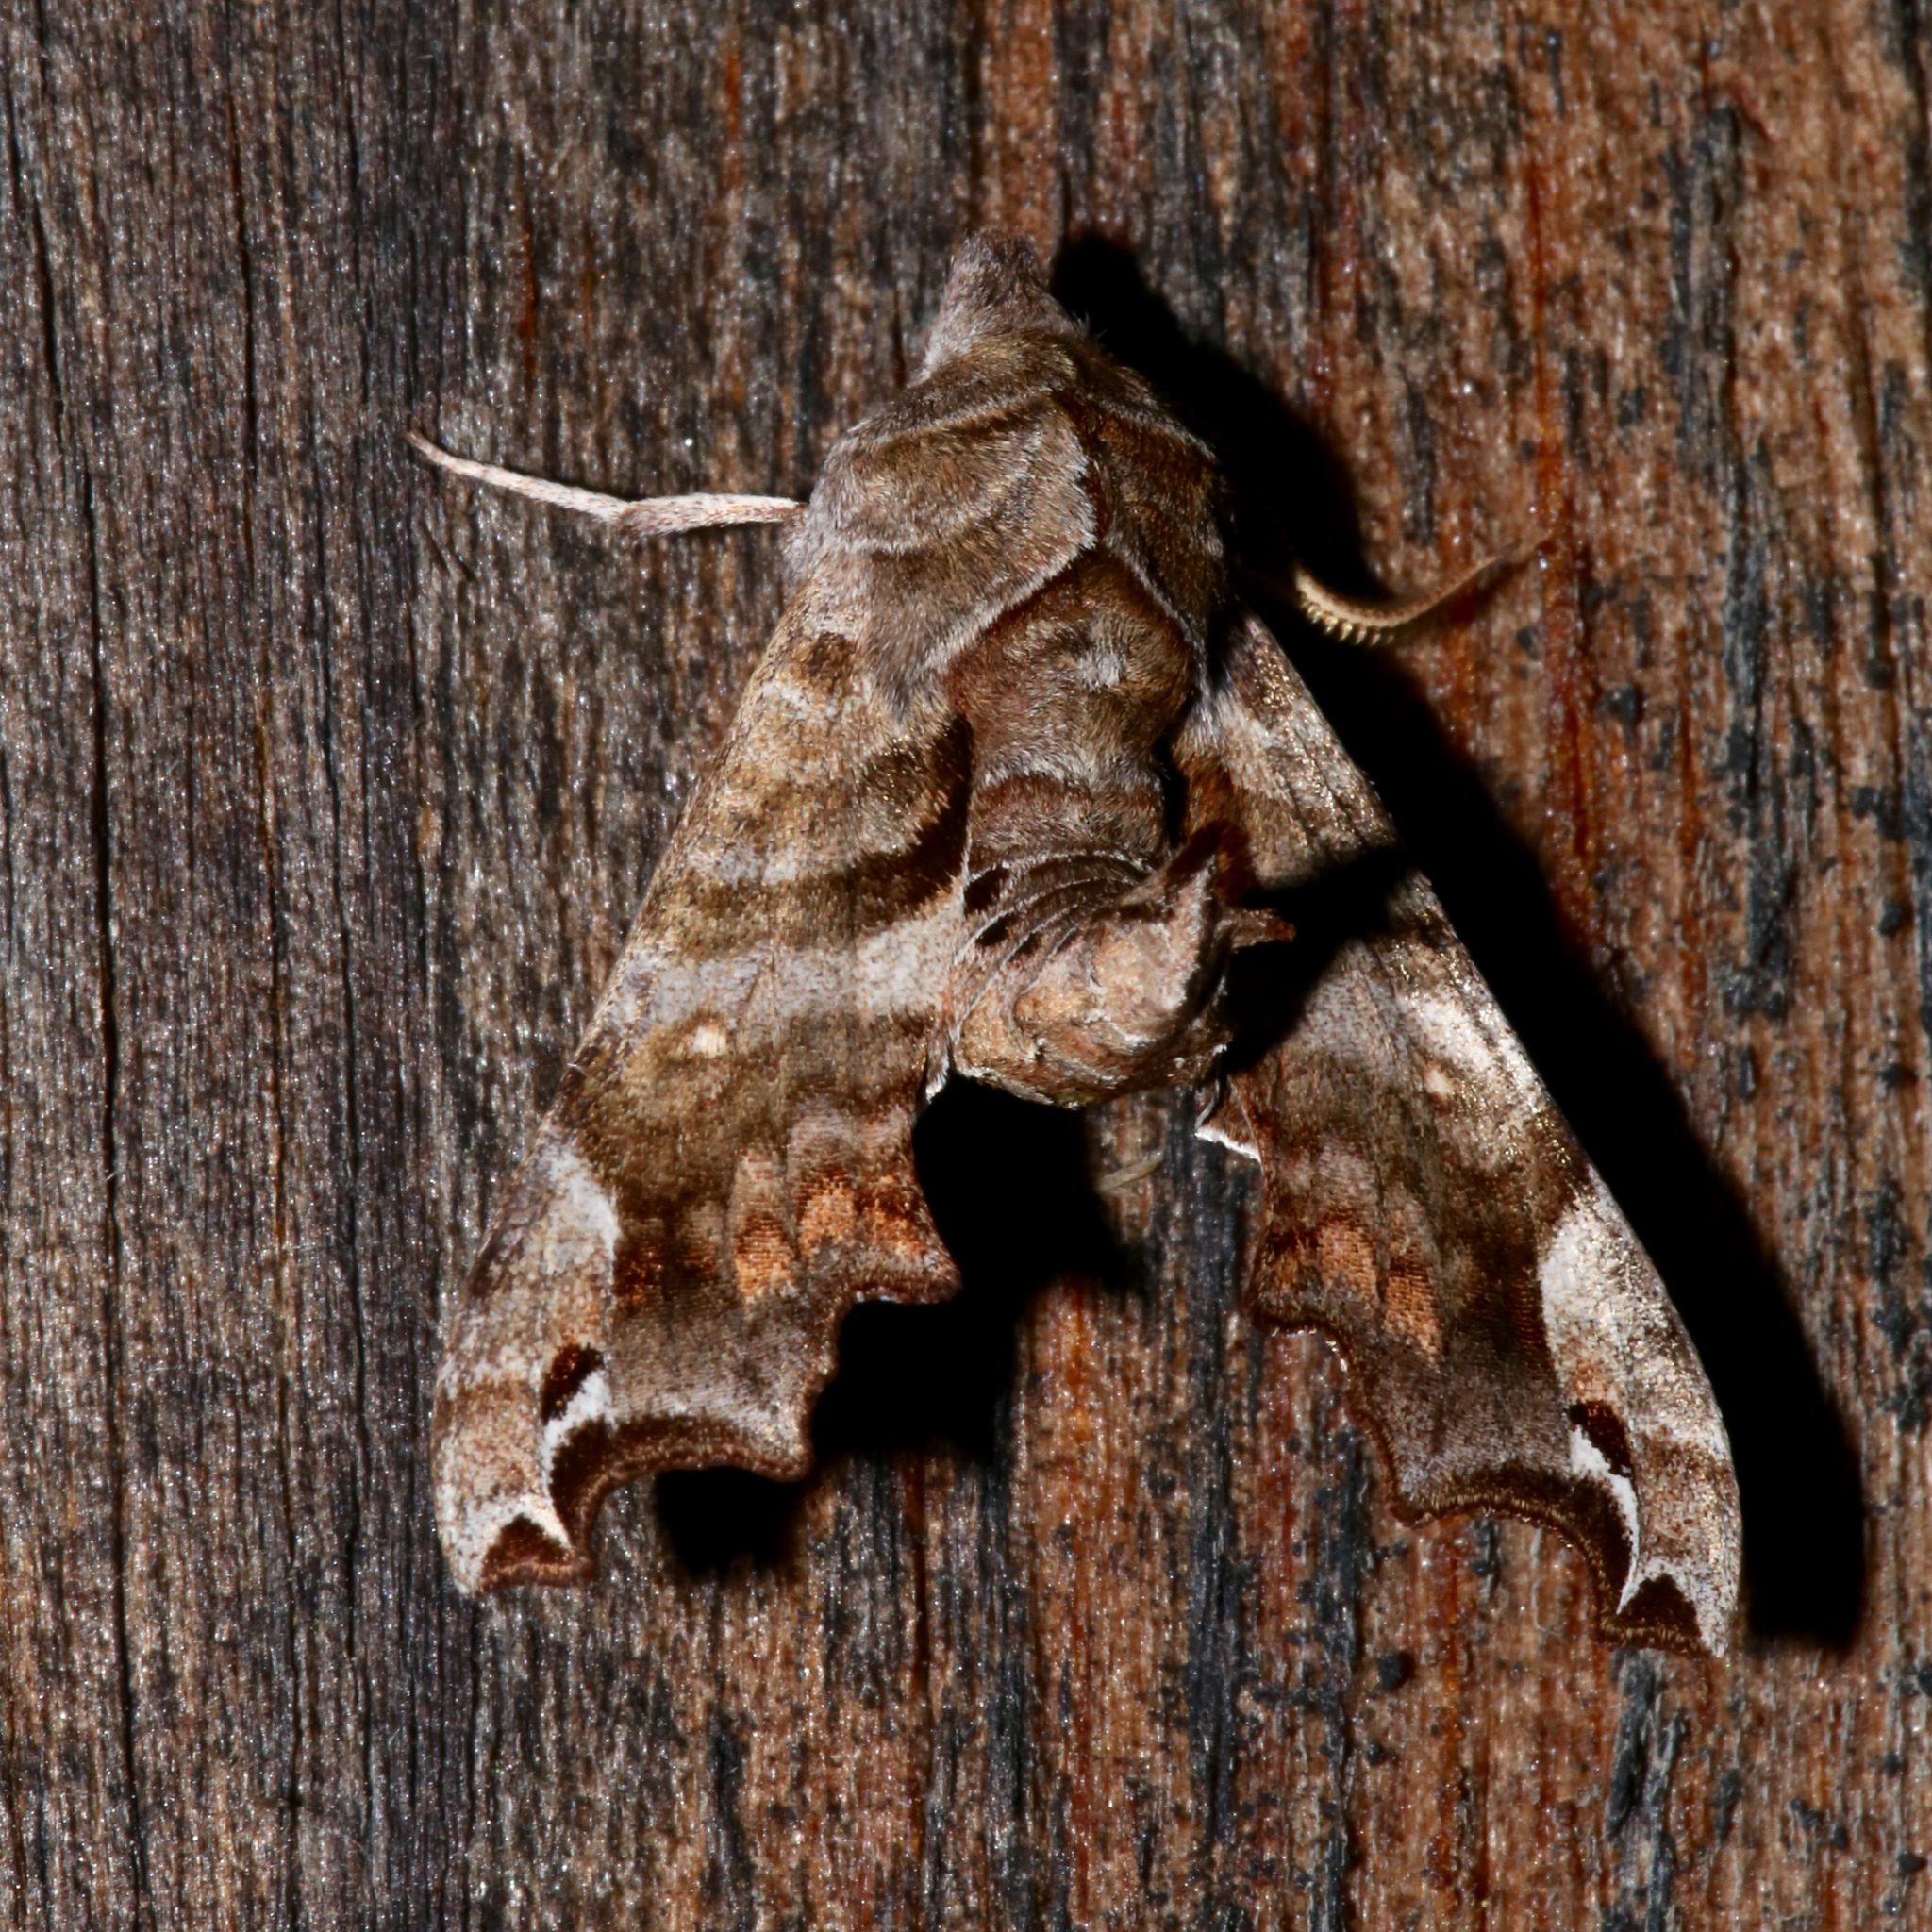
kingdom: Animalia
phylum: Arthropoda
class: Insecta
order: Lepidoptera
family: Sphingidae
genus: Deidamia
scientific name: Deidamia inscriptum
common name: Lettered sphinx
